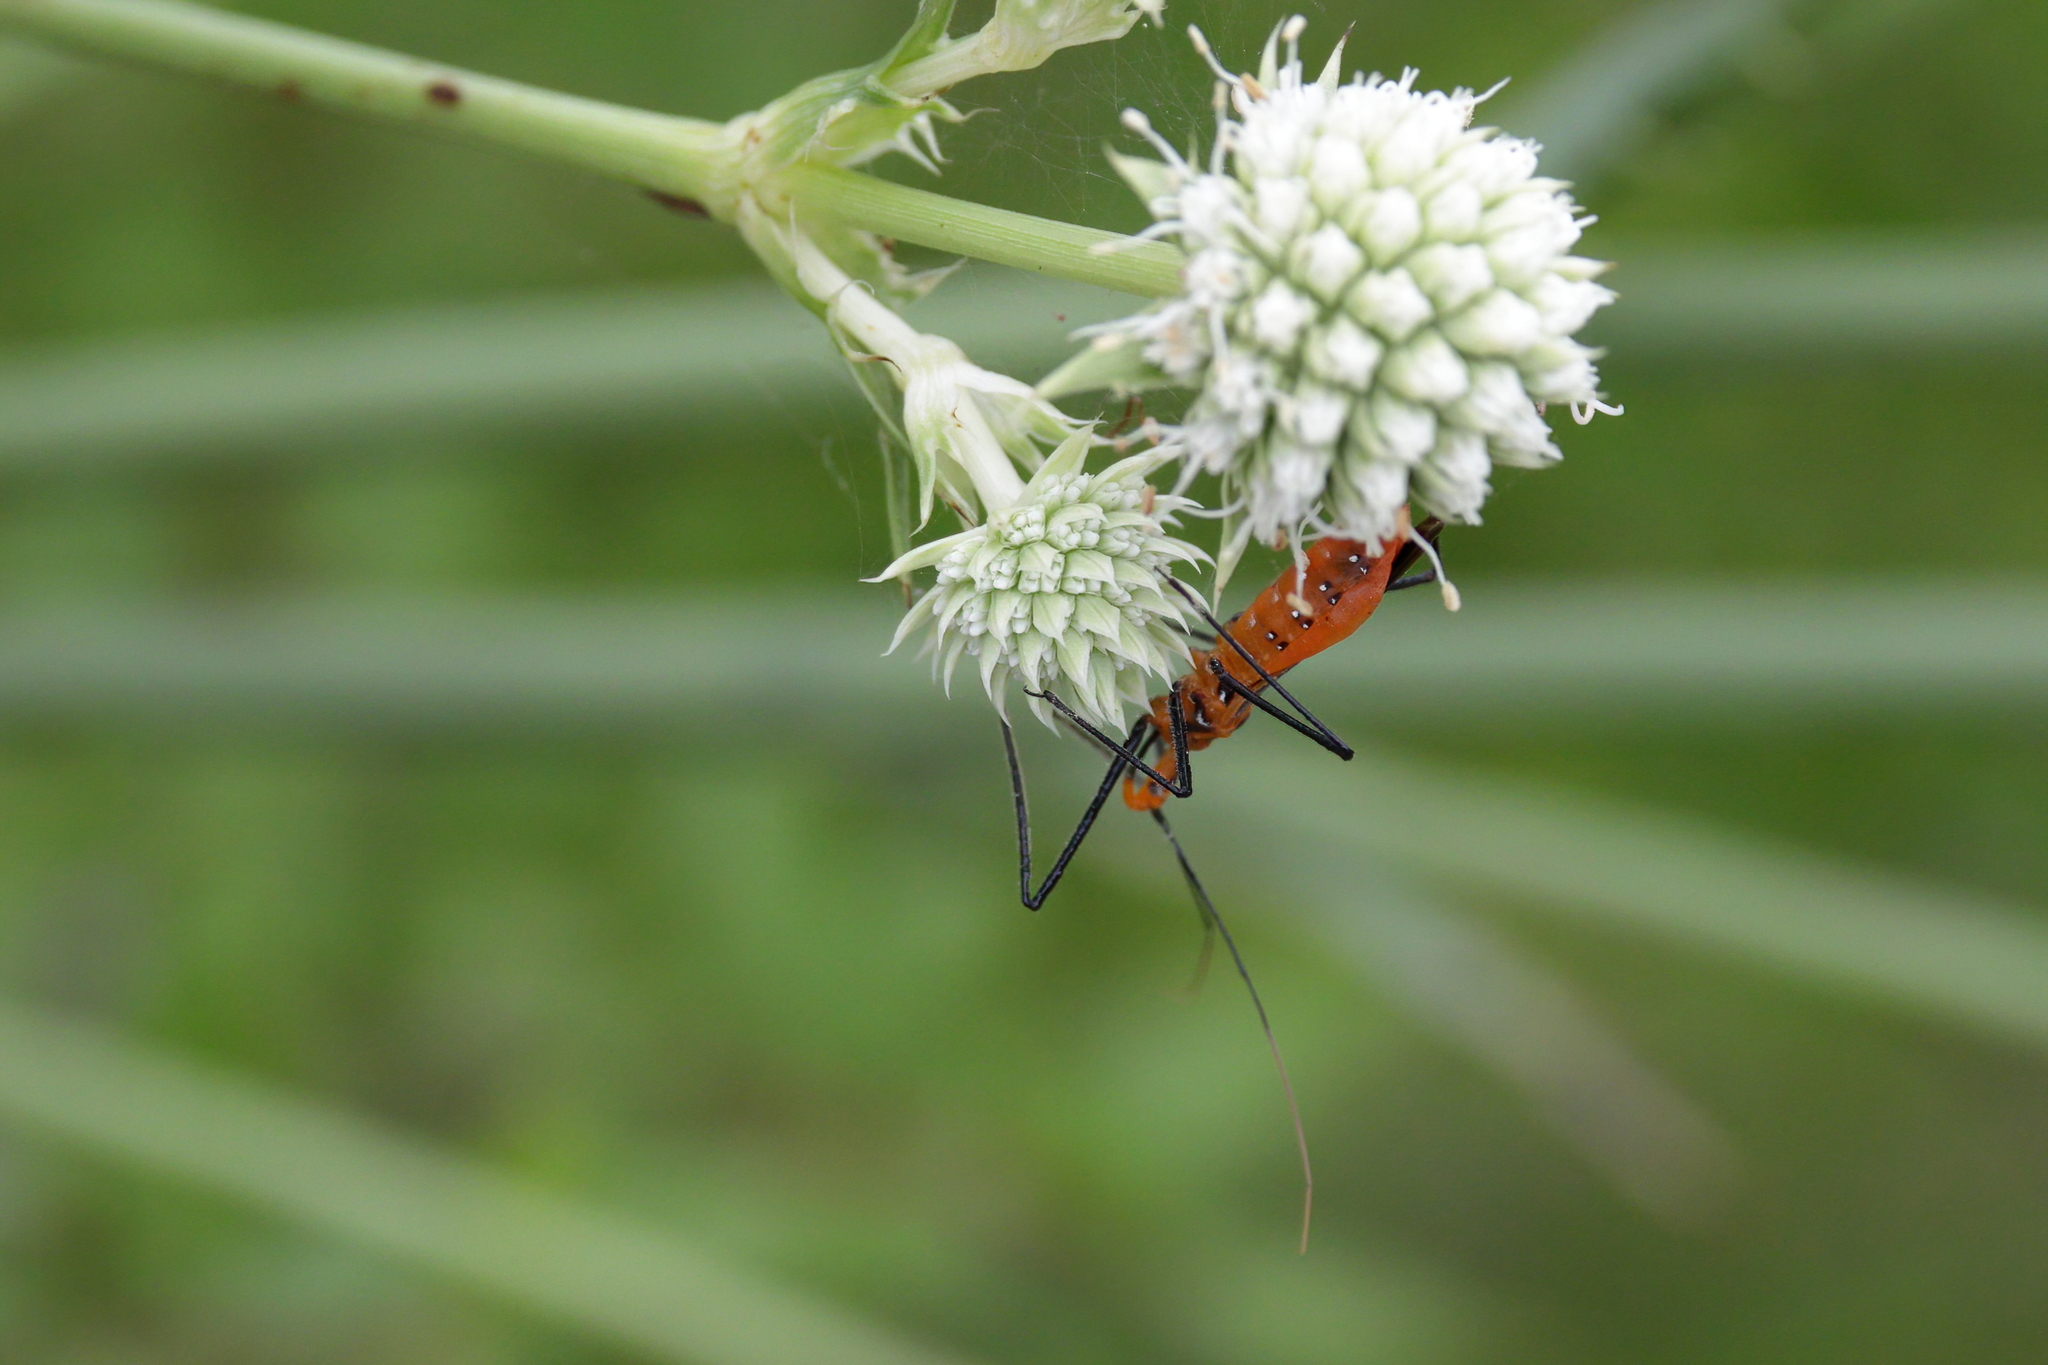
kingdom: Animalia
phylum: Arthropoda
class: Insecta
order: Hemiptera
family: Reduviidae
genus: Zelus
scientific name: Zelus longipes
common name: Milkweed assassin bug
